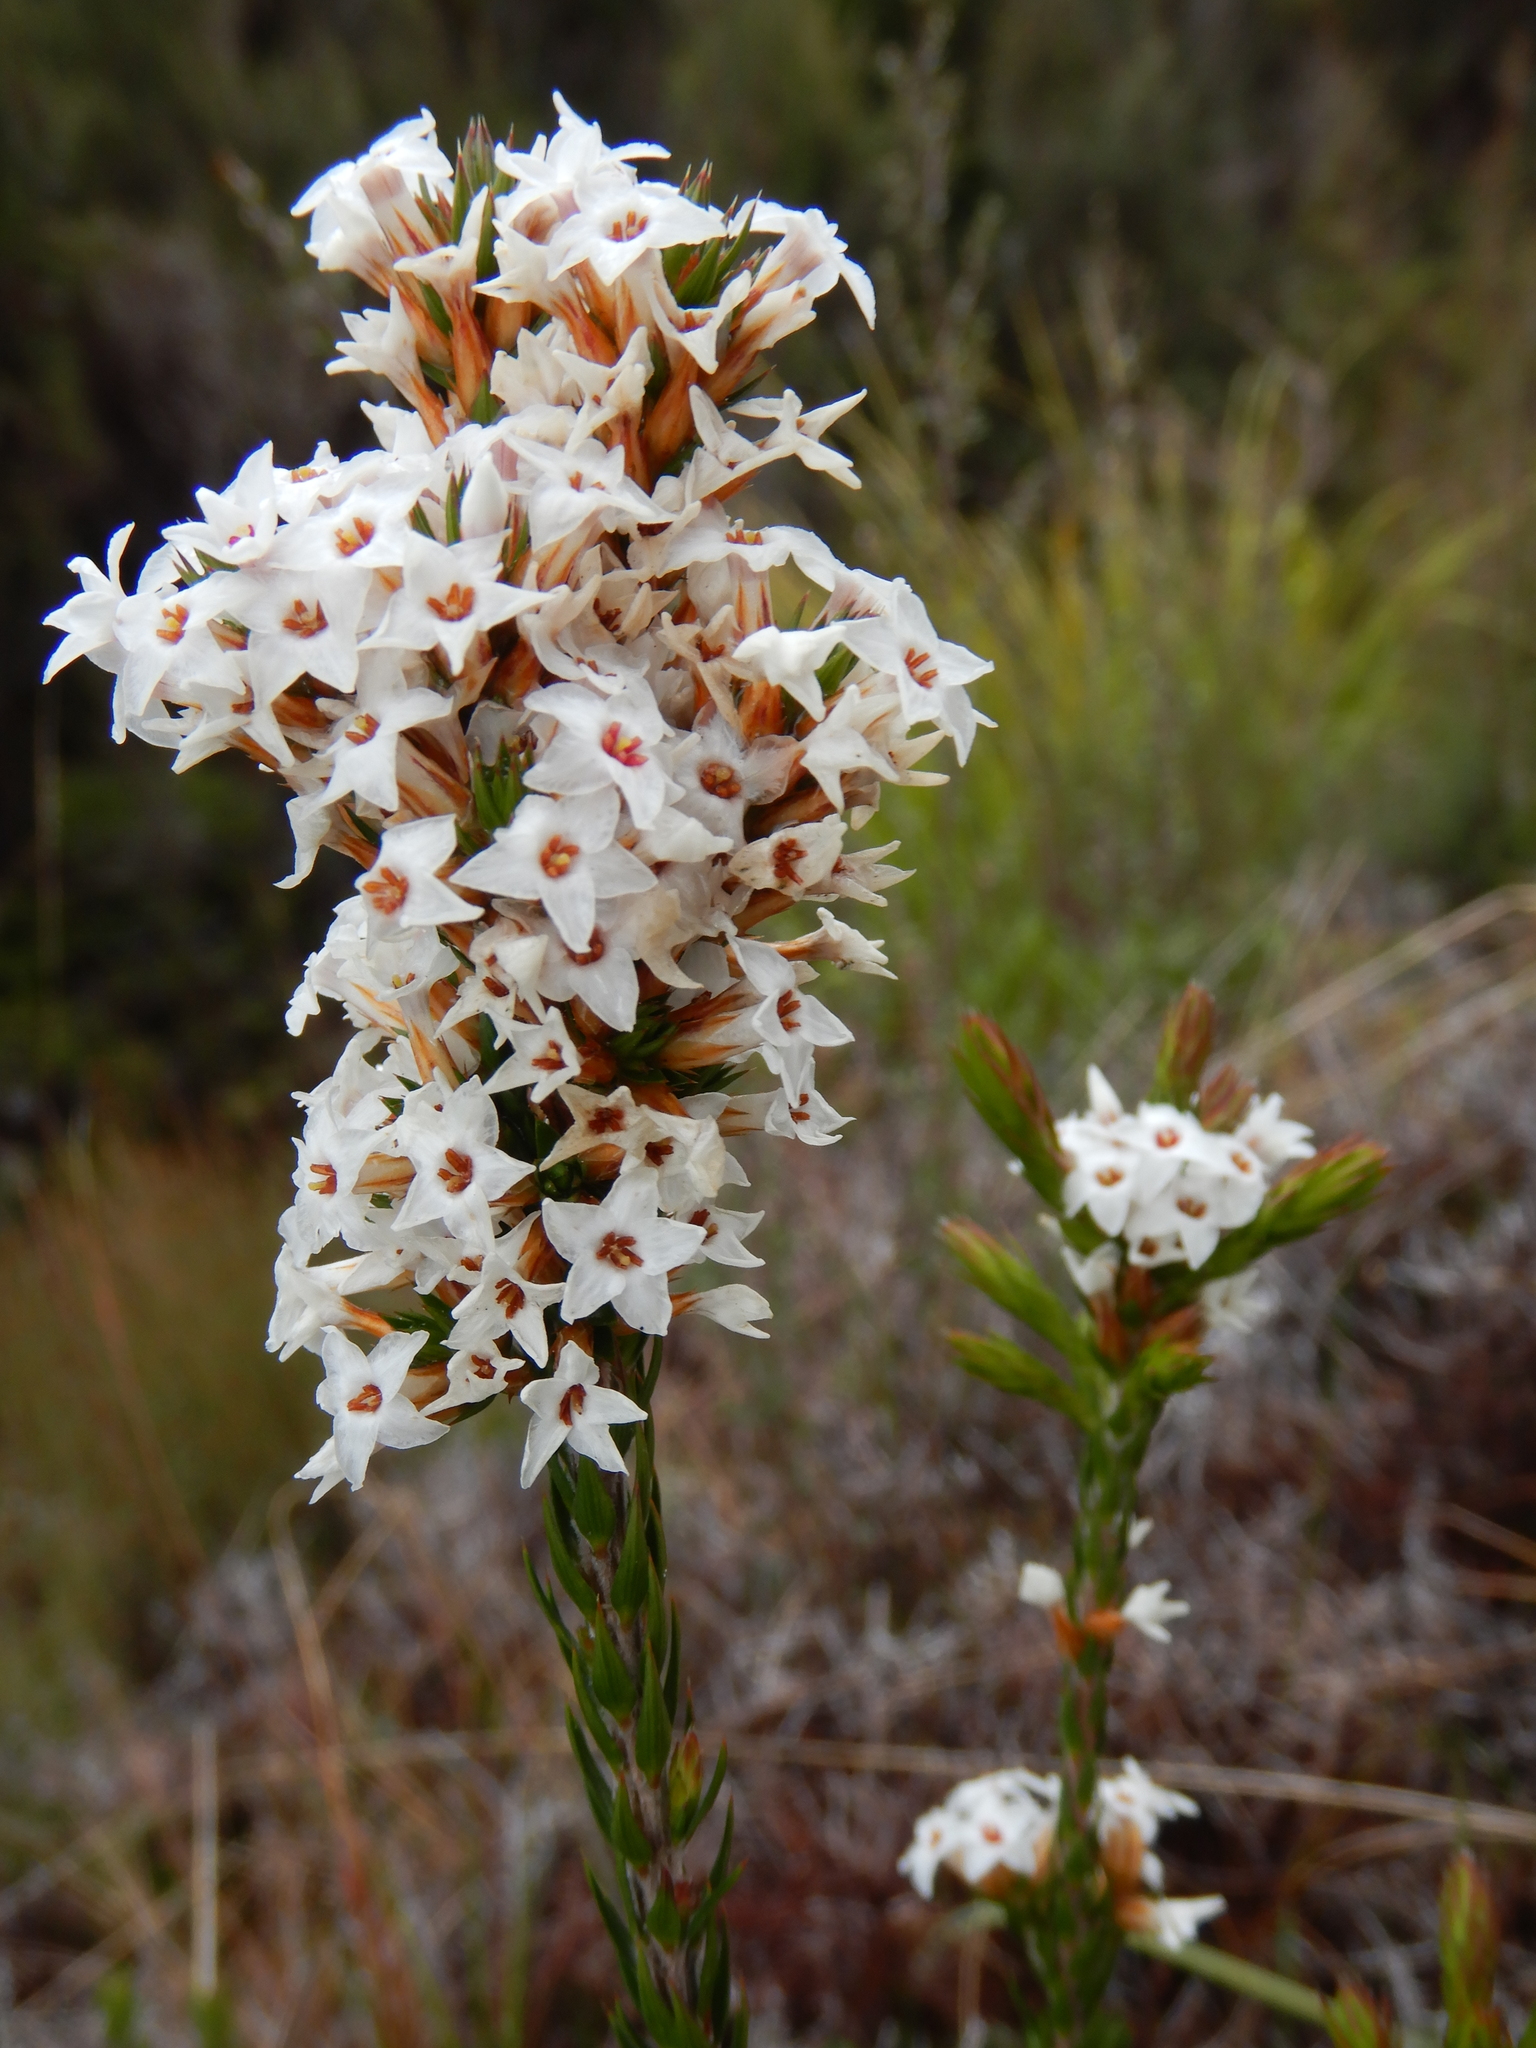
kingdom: Plantae
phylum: Tracheophyta
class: Magnoliopsida
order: Ericales
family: Ericaceae
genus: Epacris
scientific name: Epacris lanuginosa
